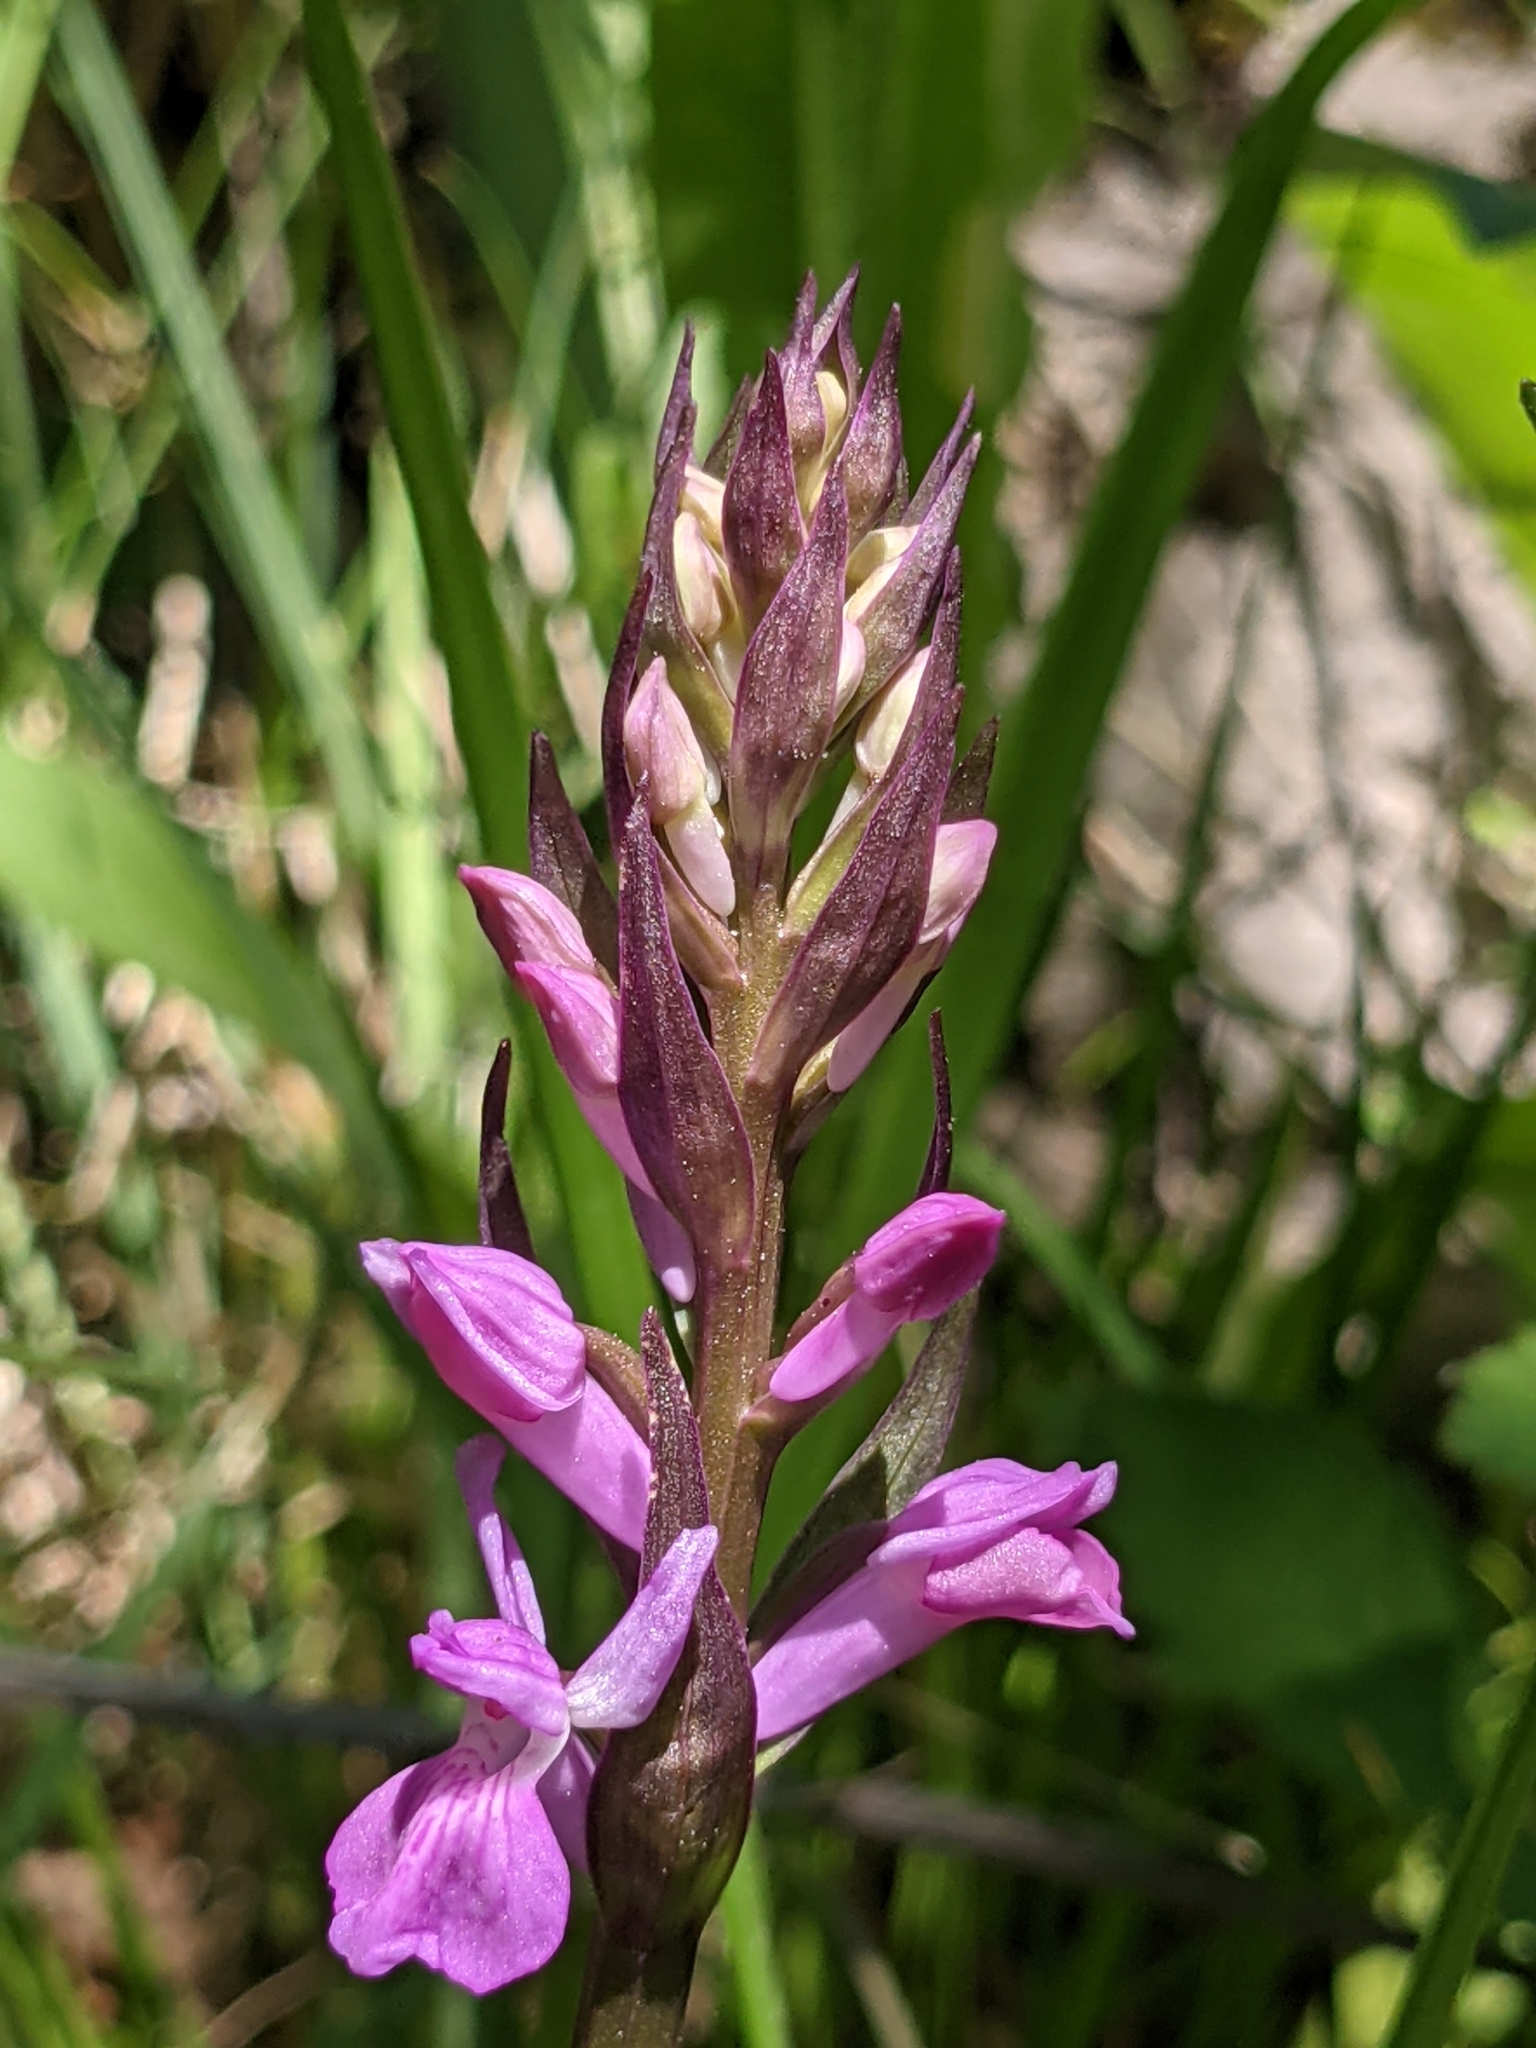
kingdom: Plantae
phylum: Tracheophyta
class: Liliopsida
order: Asparagales
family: Orchidaceae
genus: Dactylorhiza
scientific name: Dactylorhiza elata
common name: Stately dactylorhiza
